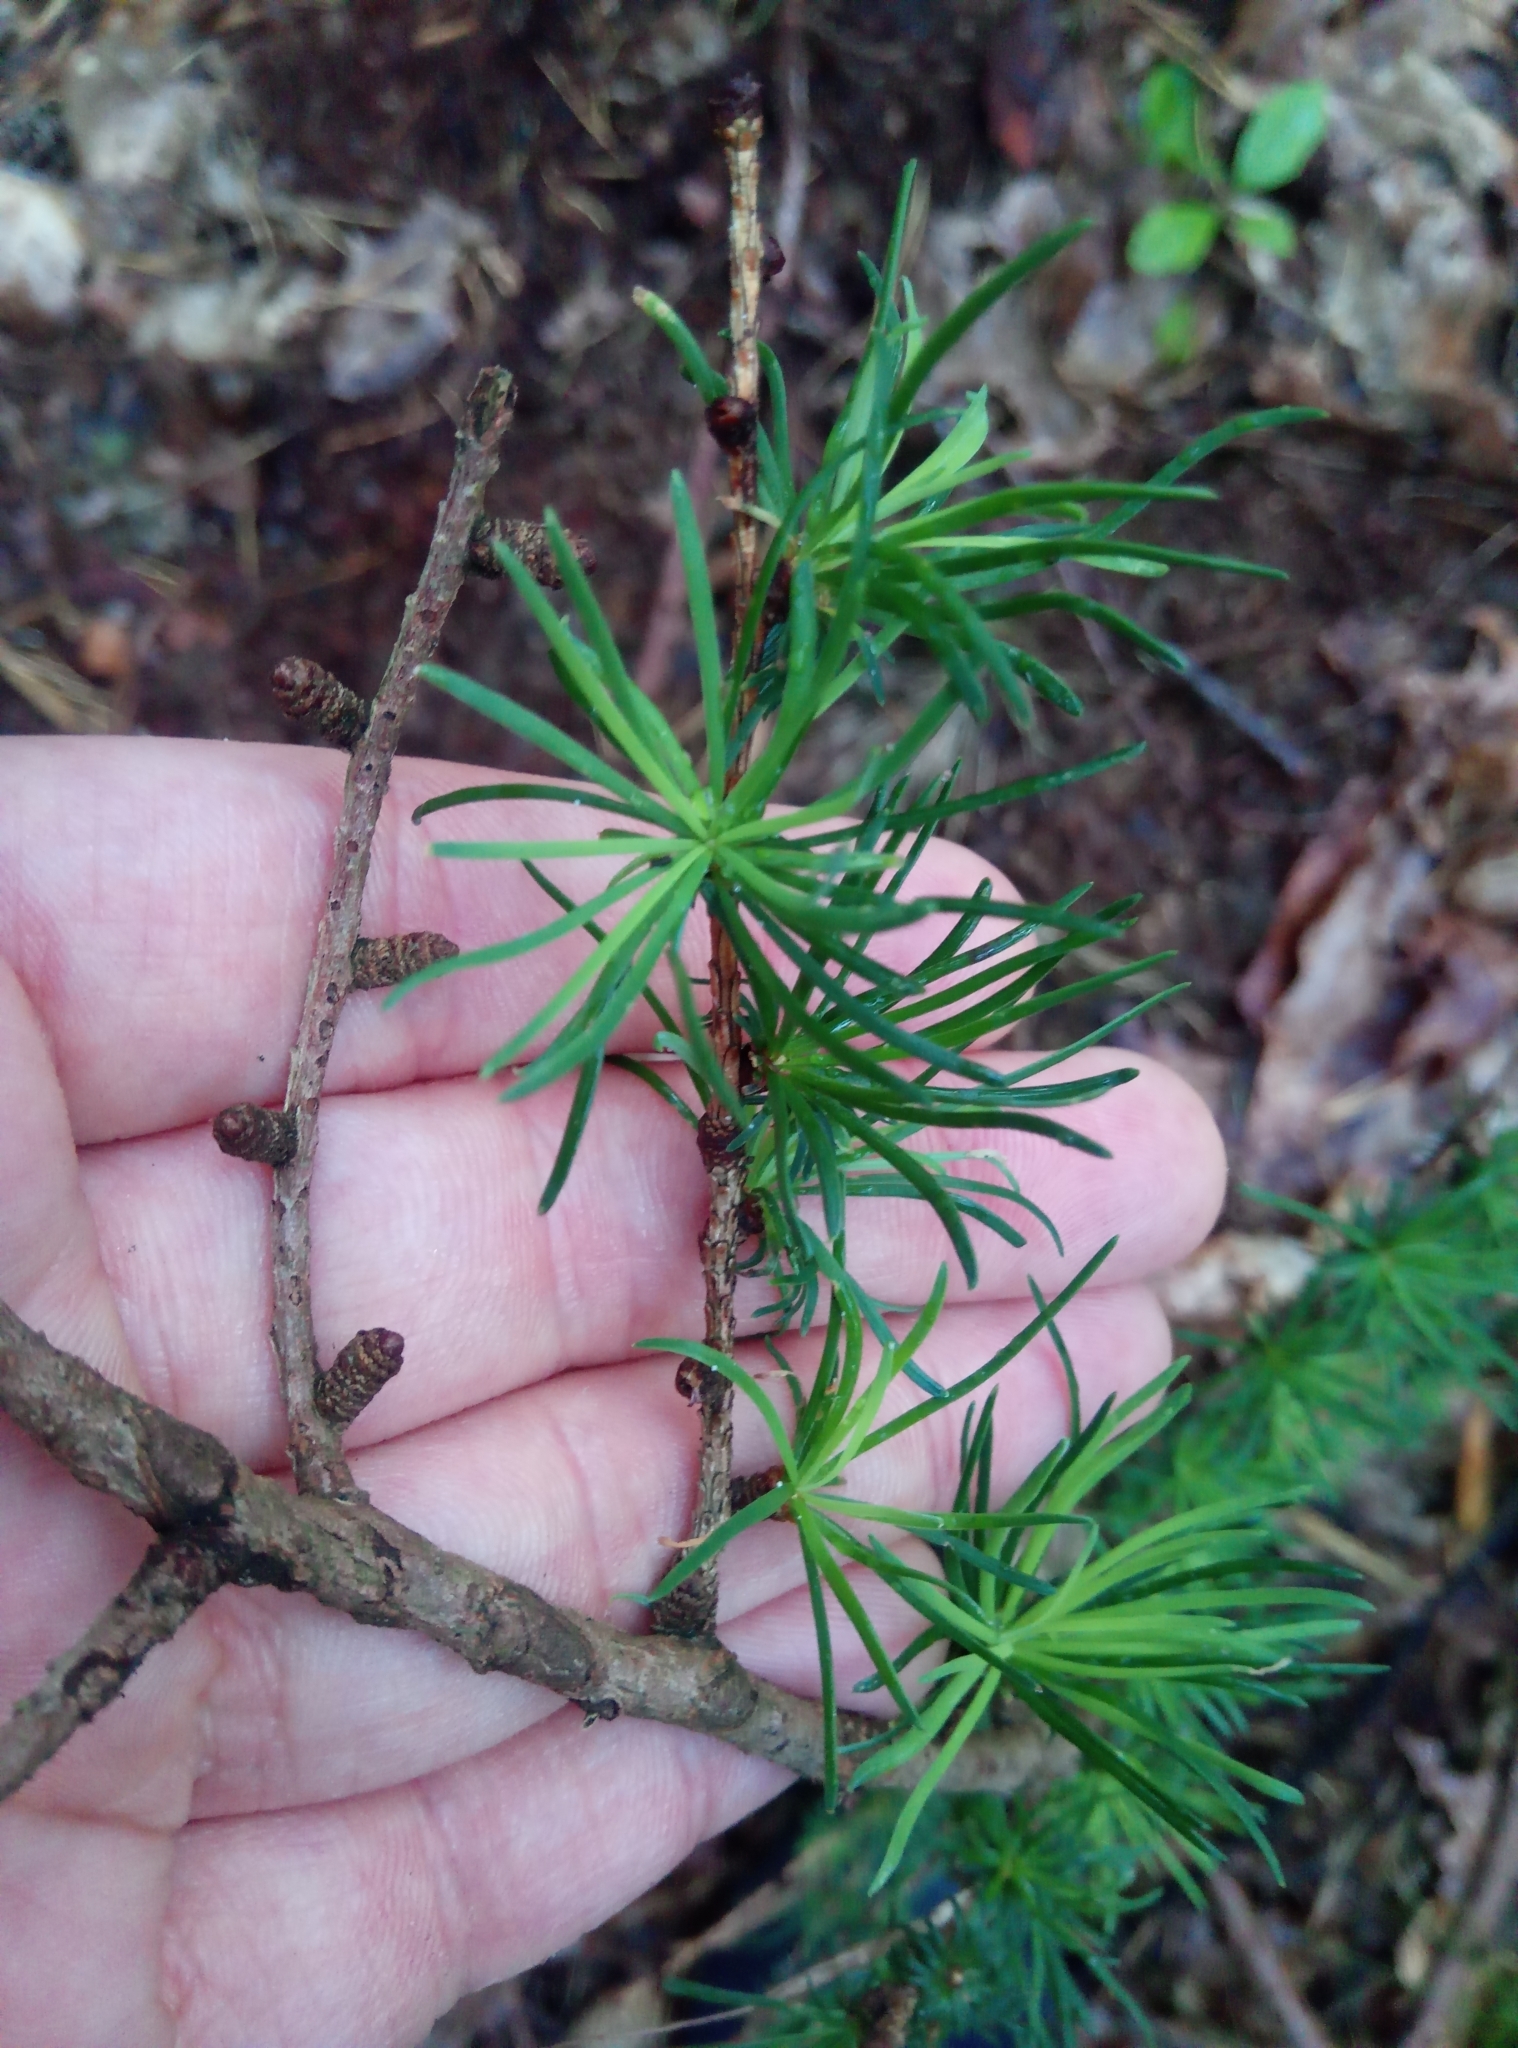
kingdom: Plantae
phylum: Tracheophyta
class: Pinopsida
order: Pinales
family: Pinaceae
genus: Larix
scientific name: Larix decidua
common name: European larch
